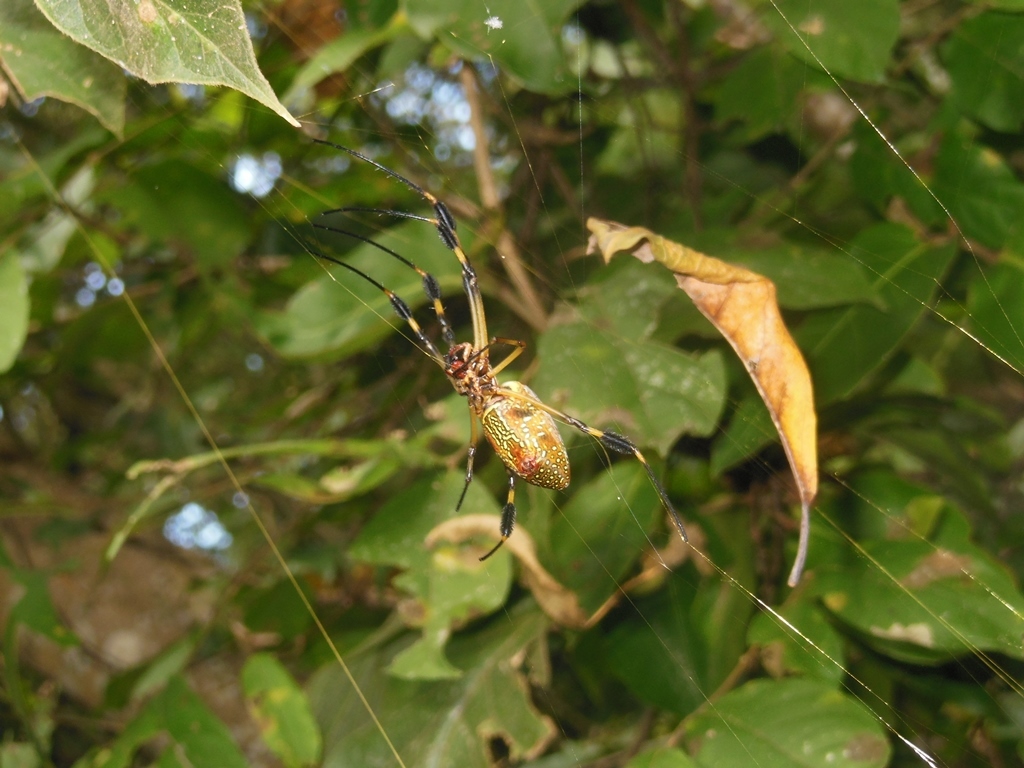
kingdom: Animalia
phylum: Arthropoda
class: Arachnida
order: Araneae
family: Araneidae
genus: Trichonephila
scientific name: Trichonephila clavipes
